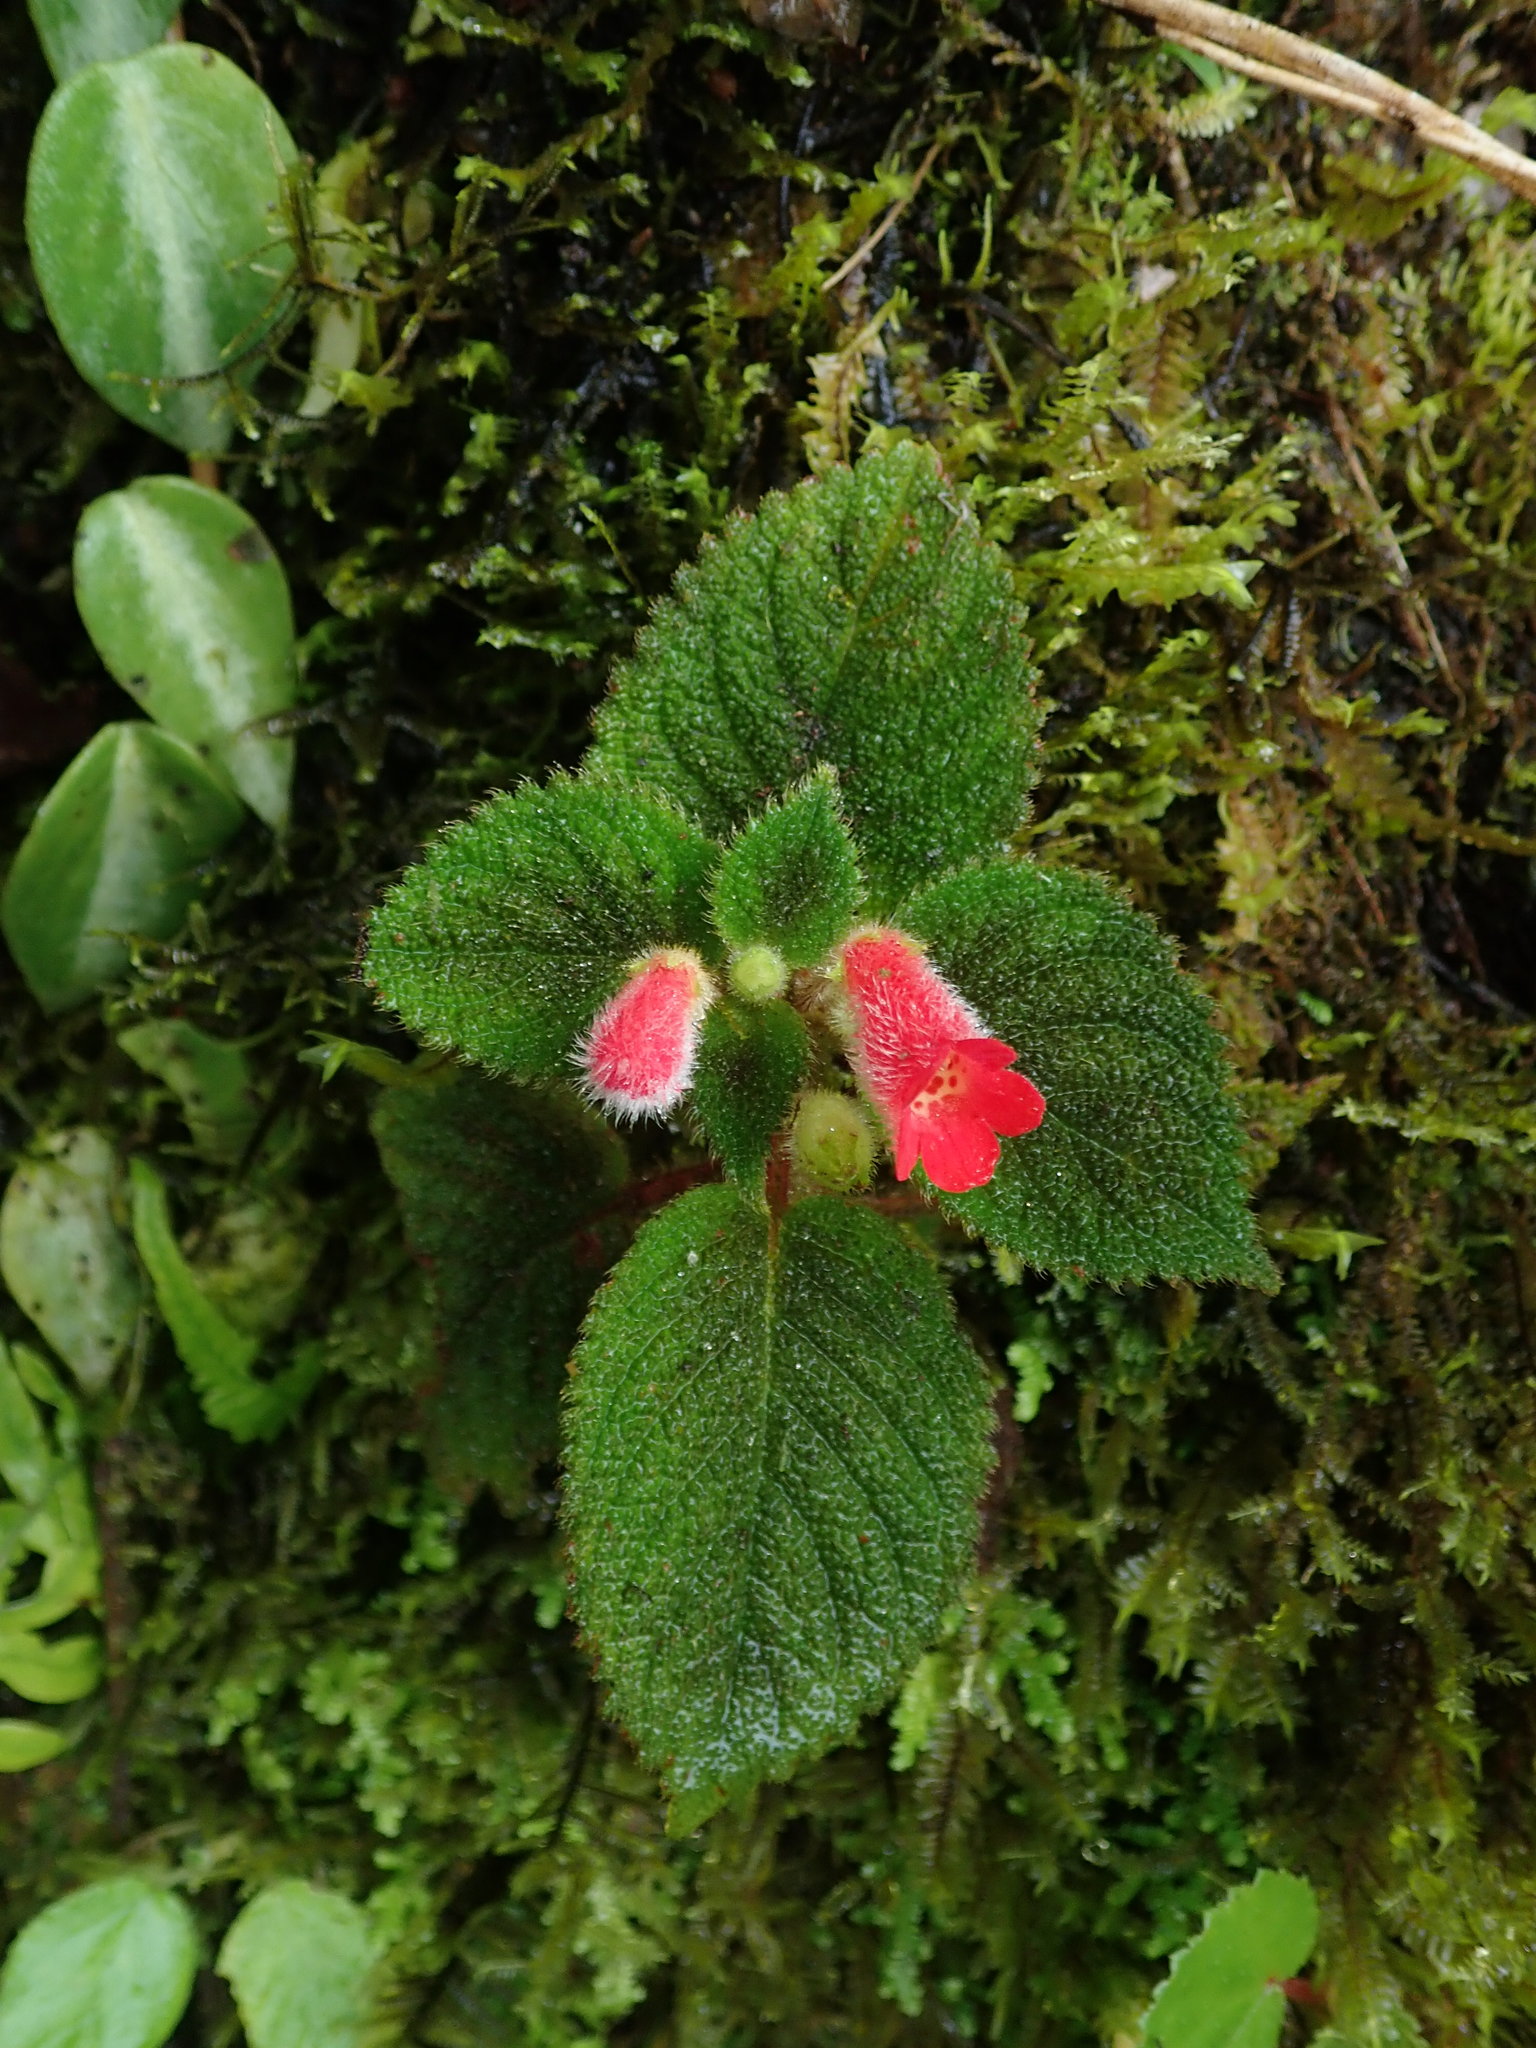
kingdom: Plantae
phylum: Tracheophyta
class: Magnoliopsida
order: Lamiales
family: Gesneriaceae
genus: Kohleria
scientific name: Kohleria villosa
